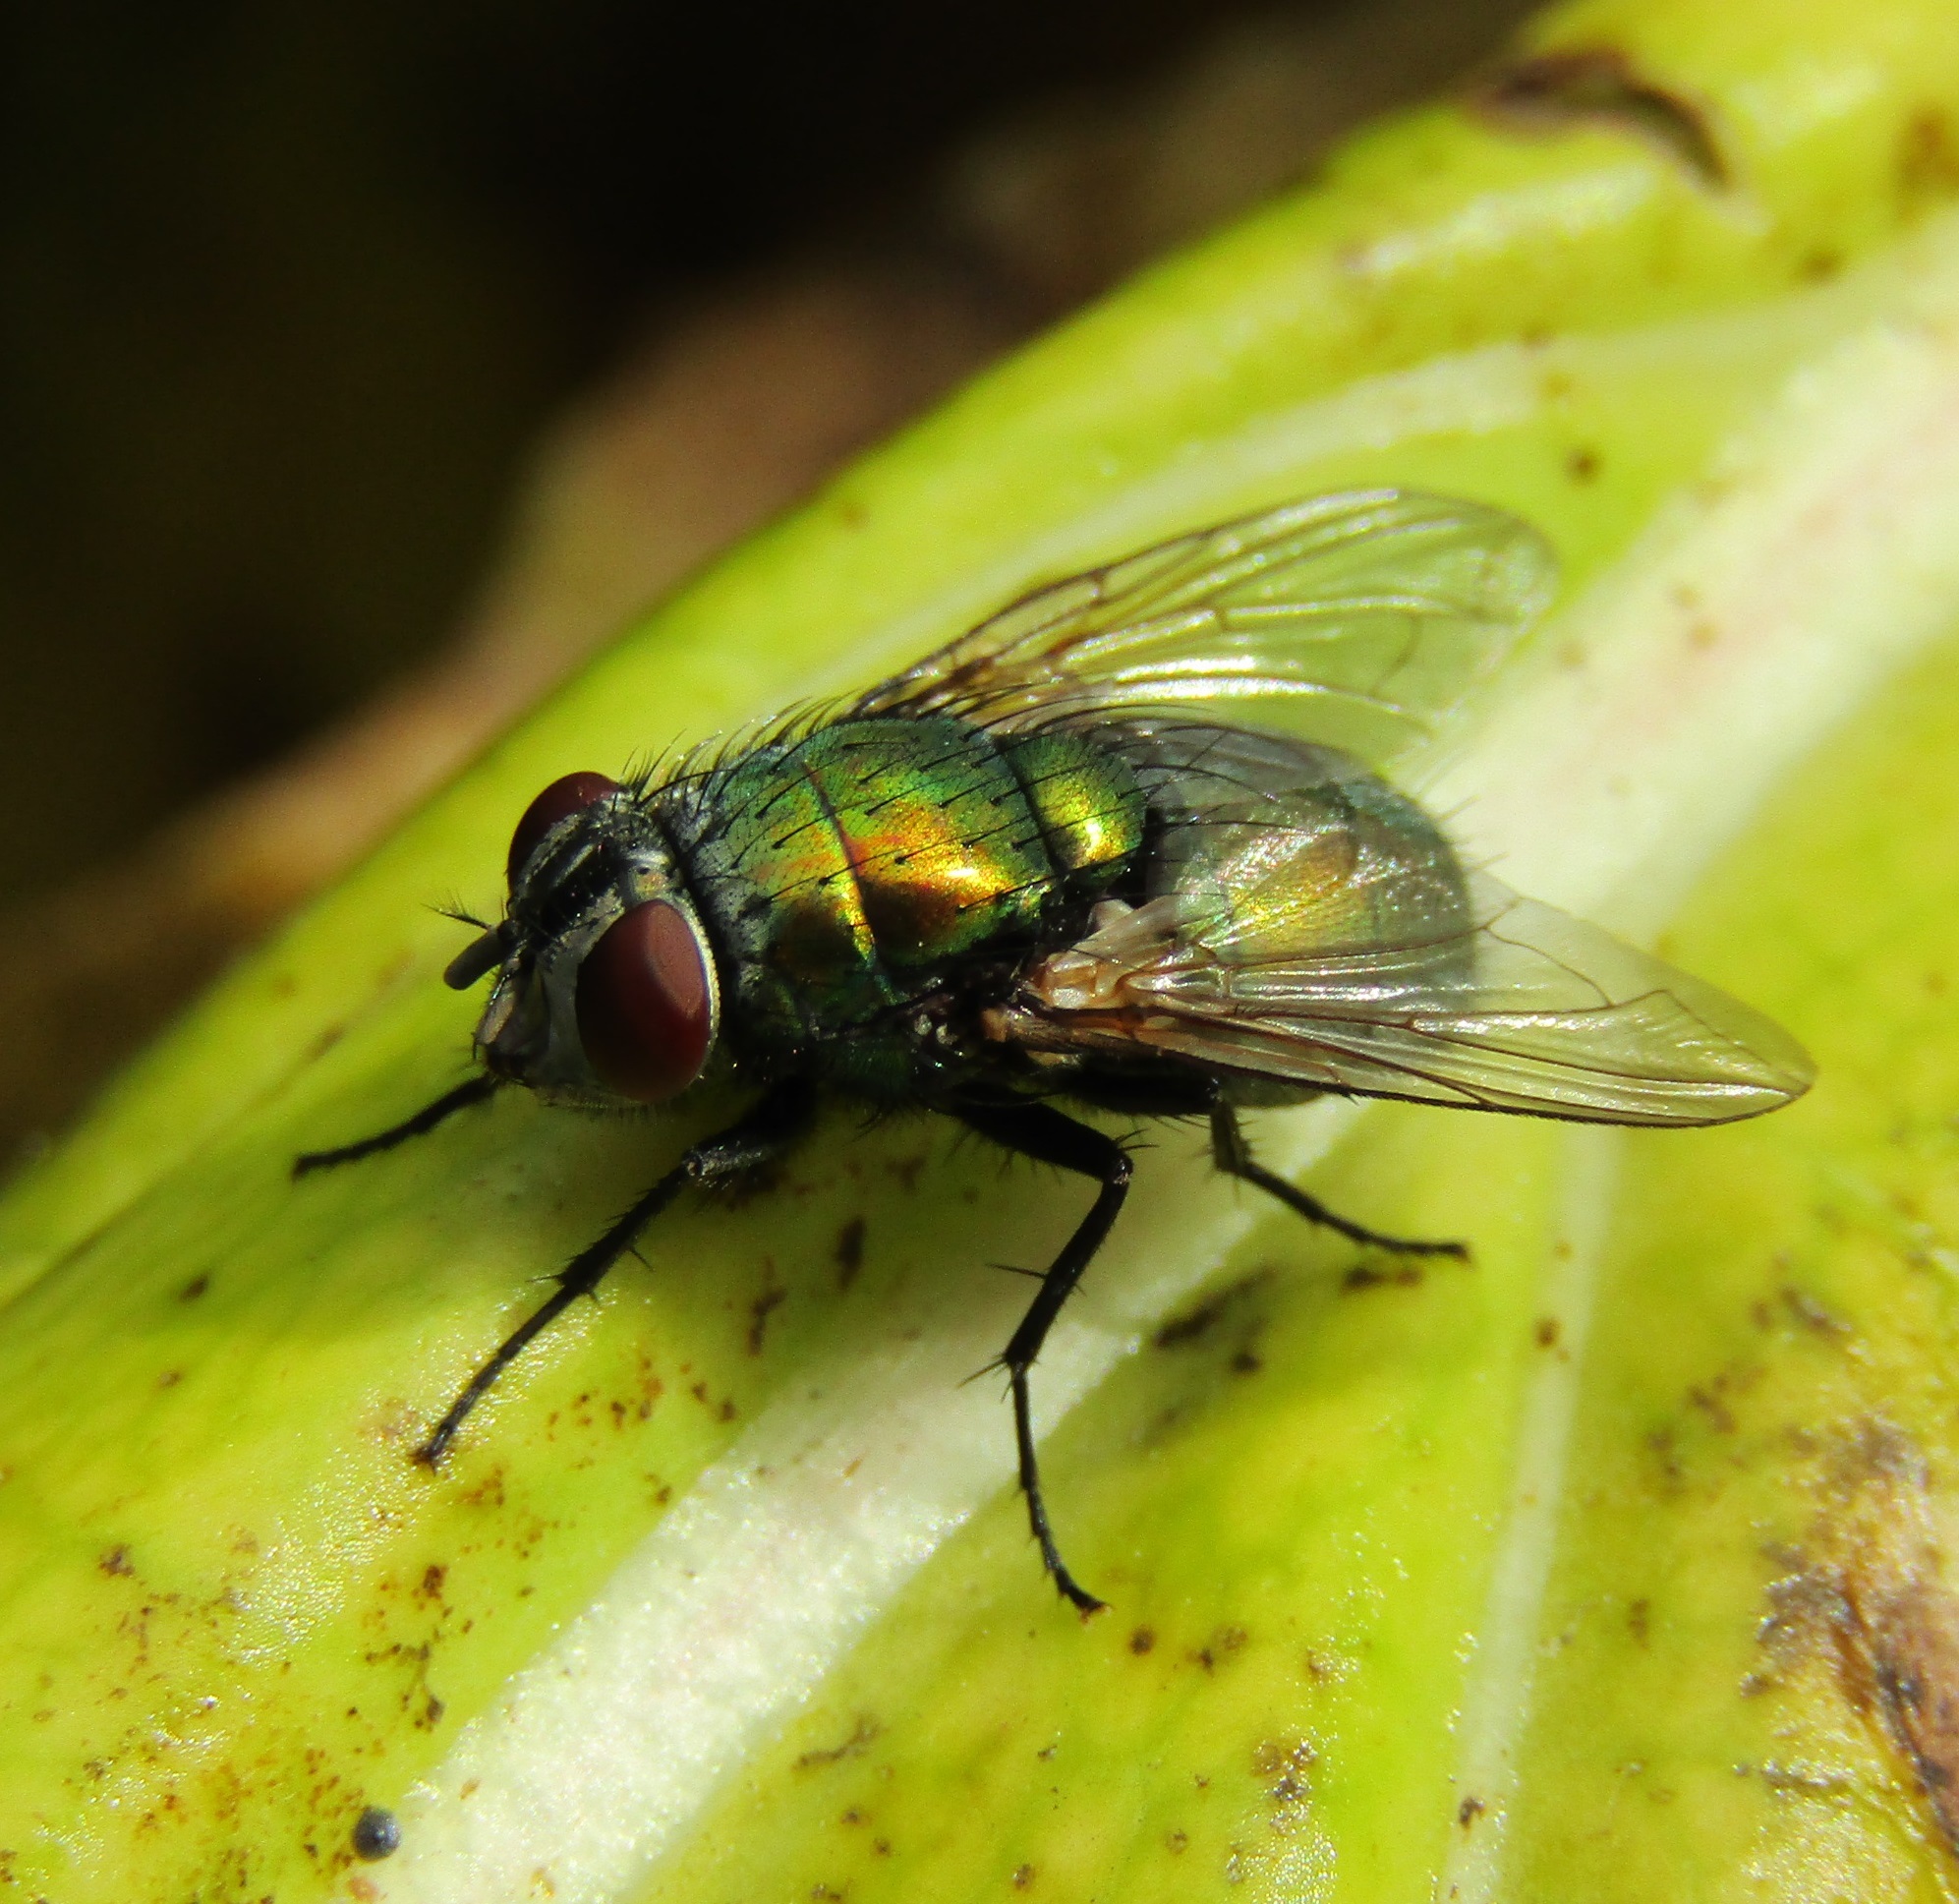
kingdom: Animalia
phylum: Arthropoda
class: Insecta
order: Diptera
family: Calliphoridae
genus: Lucilia
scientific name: Lucilia sericata
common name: Blow fly
